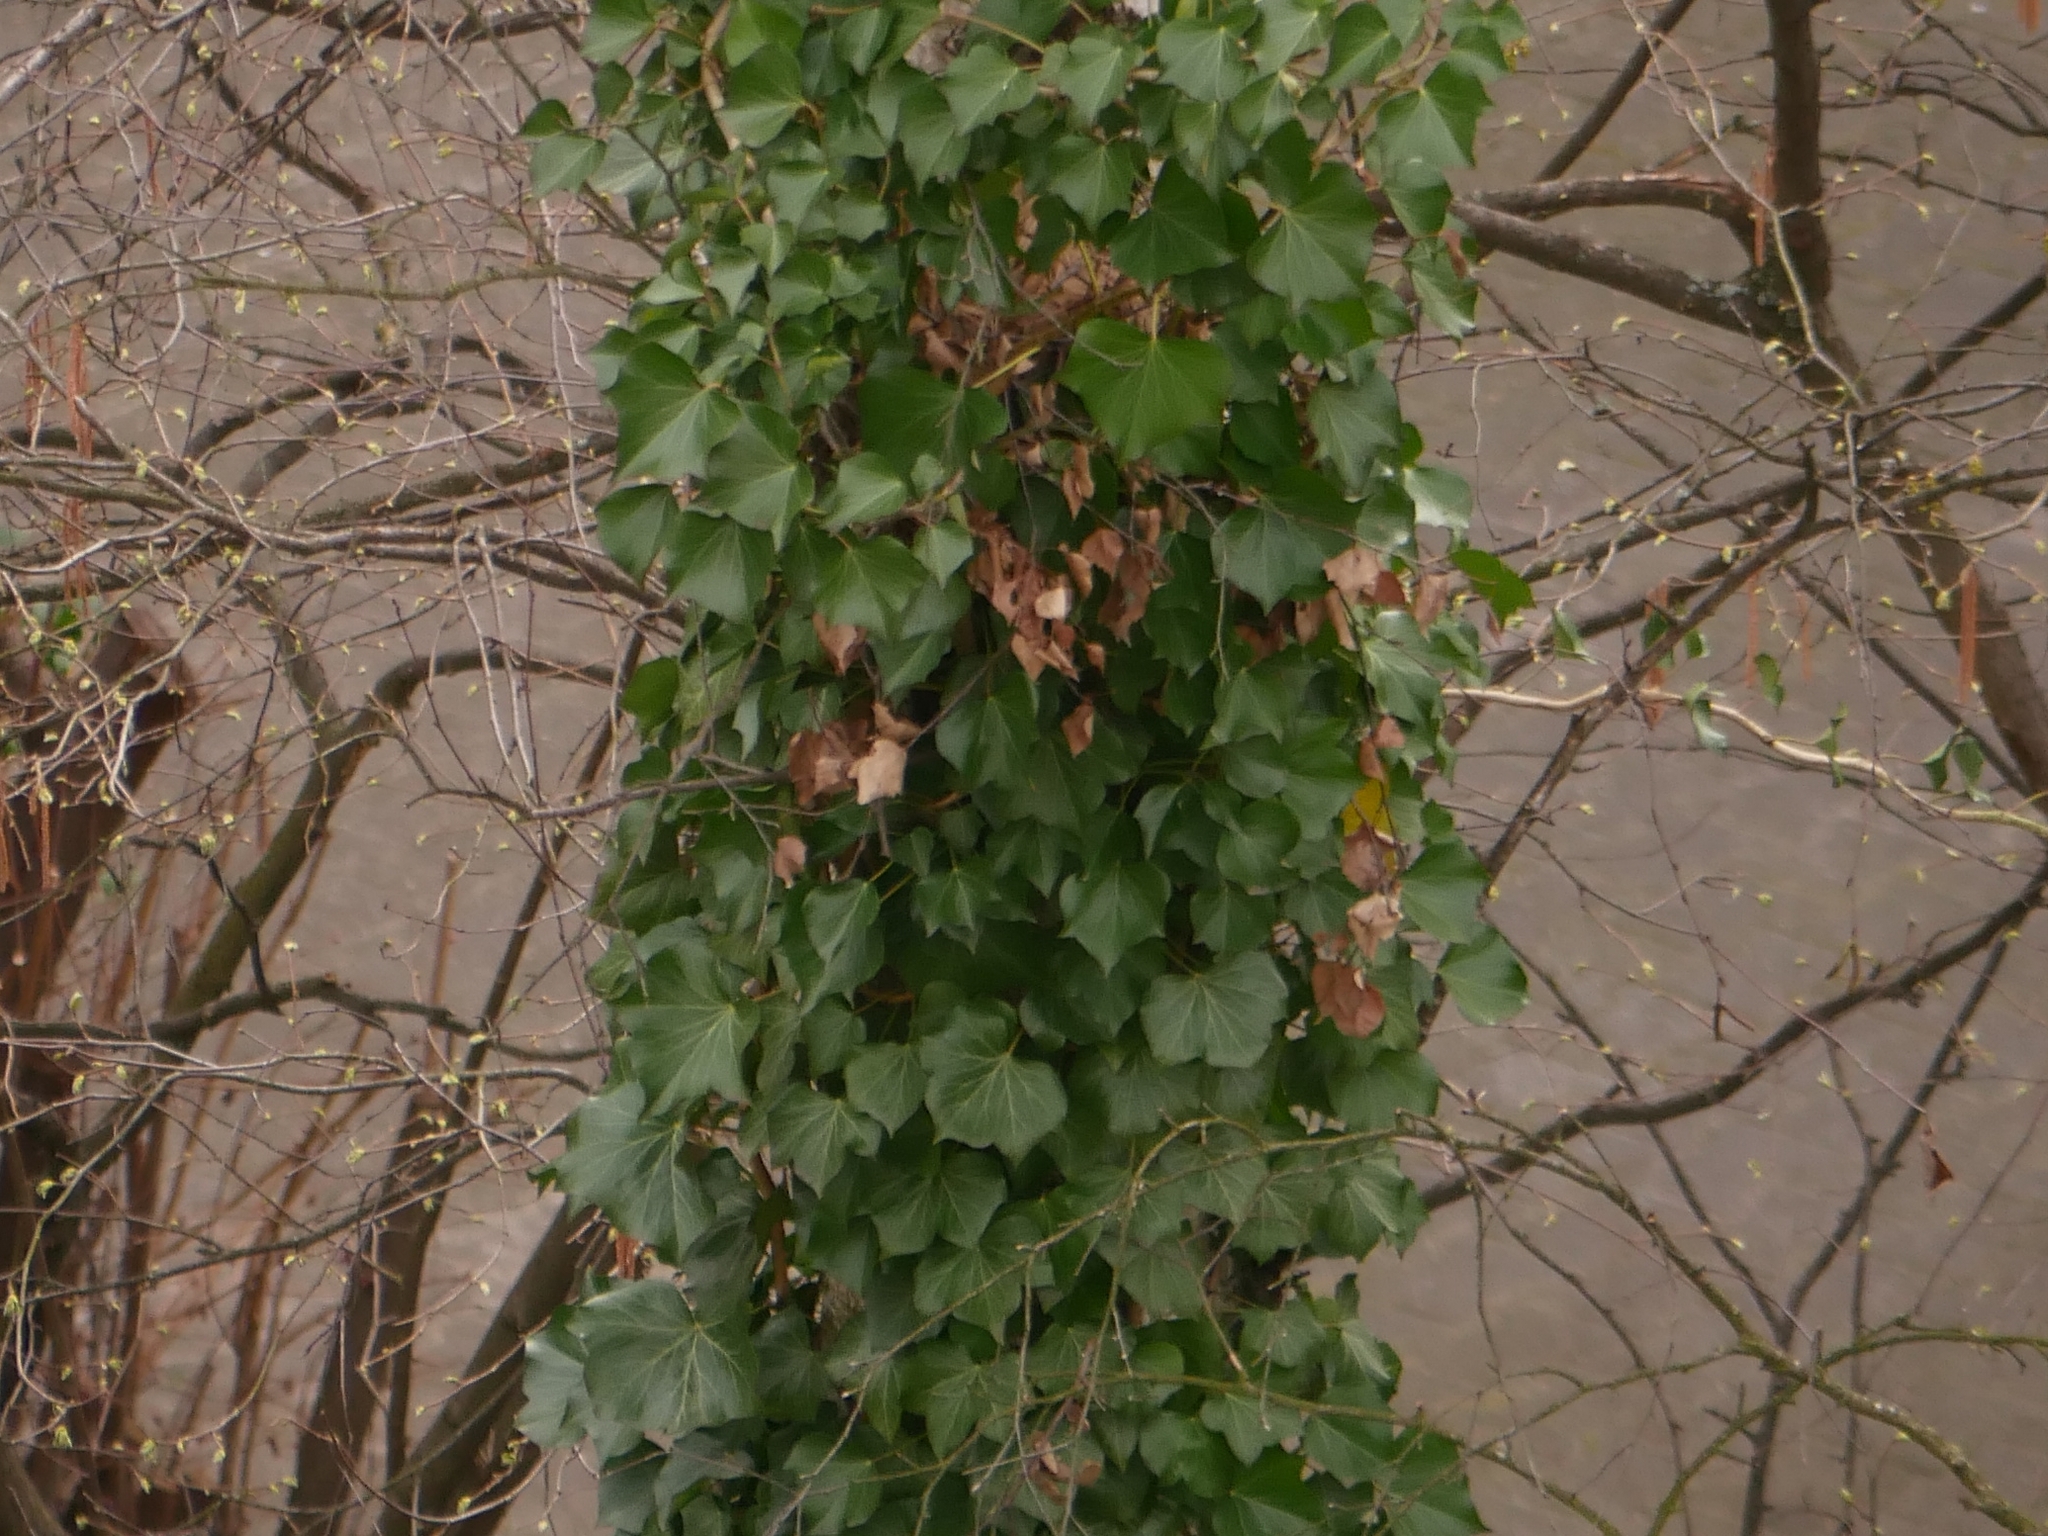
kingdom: Plantae
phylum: Tracheophyta
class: Magnoliopsida
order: Apiales
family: Araliaceae
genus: Hedera
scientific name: Hedera helix
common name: Ivy
